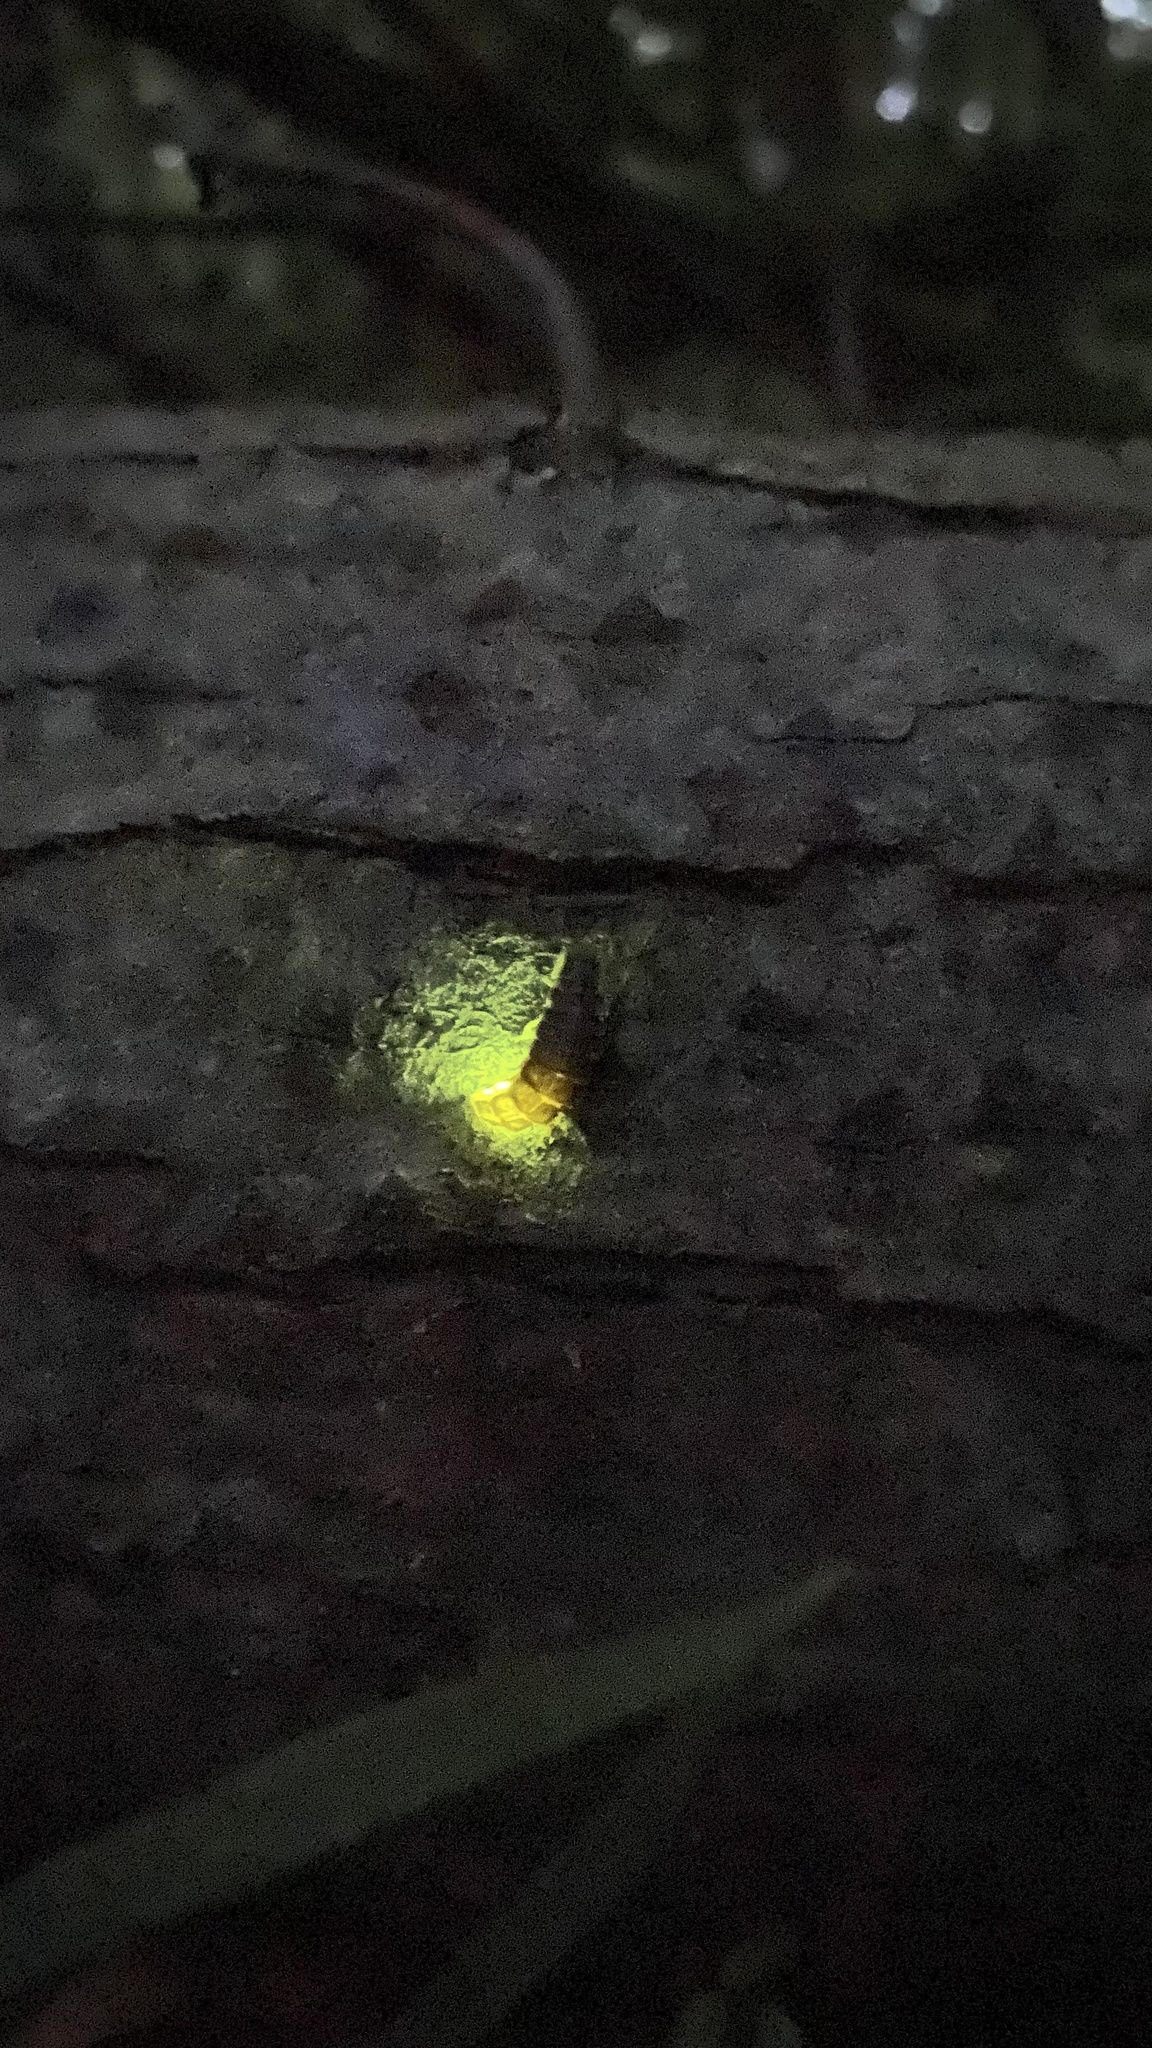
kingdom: Animalia
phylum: Arthropoda
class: Insecta
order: Coleoptera
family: Lampyridae
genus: Lampyris
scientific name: Lampyris noctiluca
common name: Glow-worm
